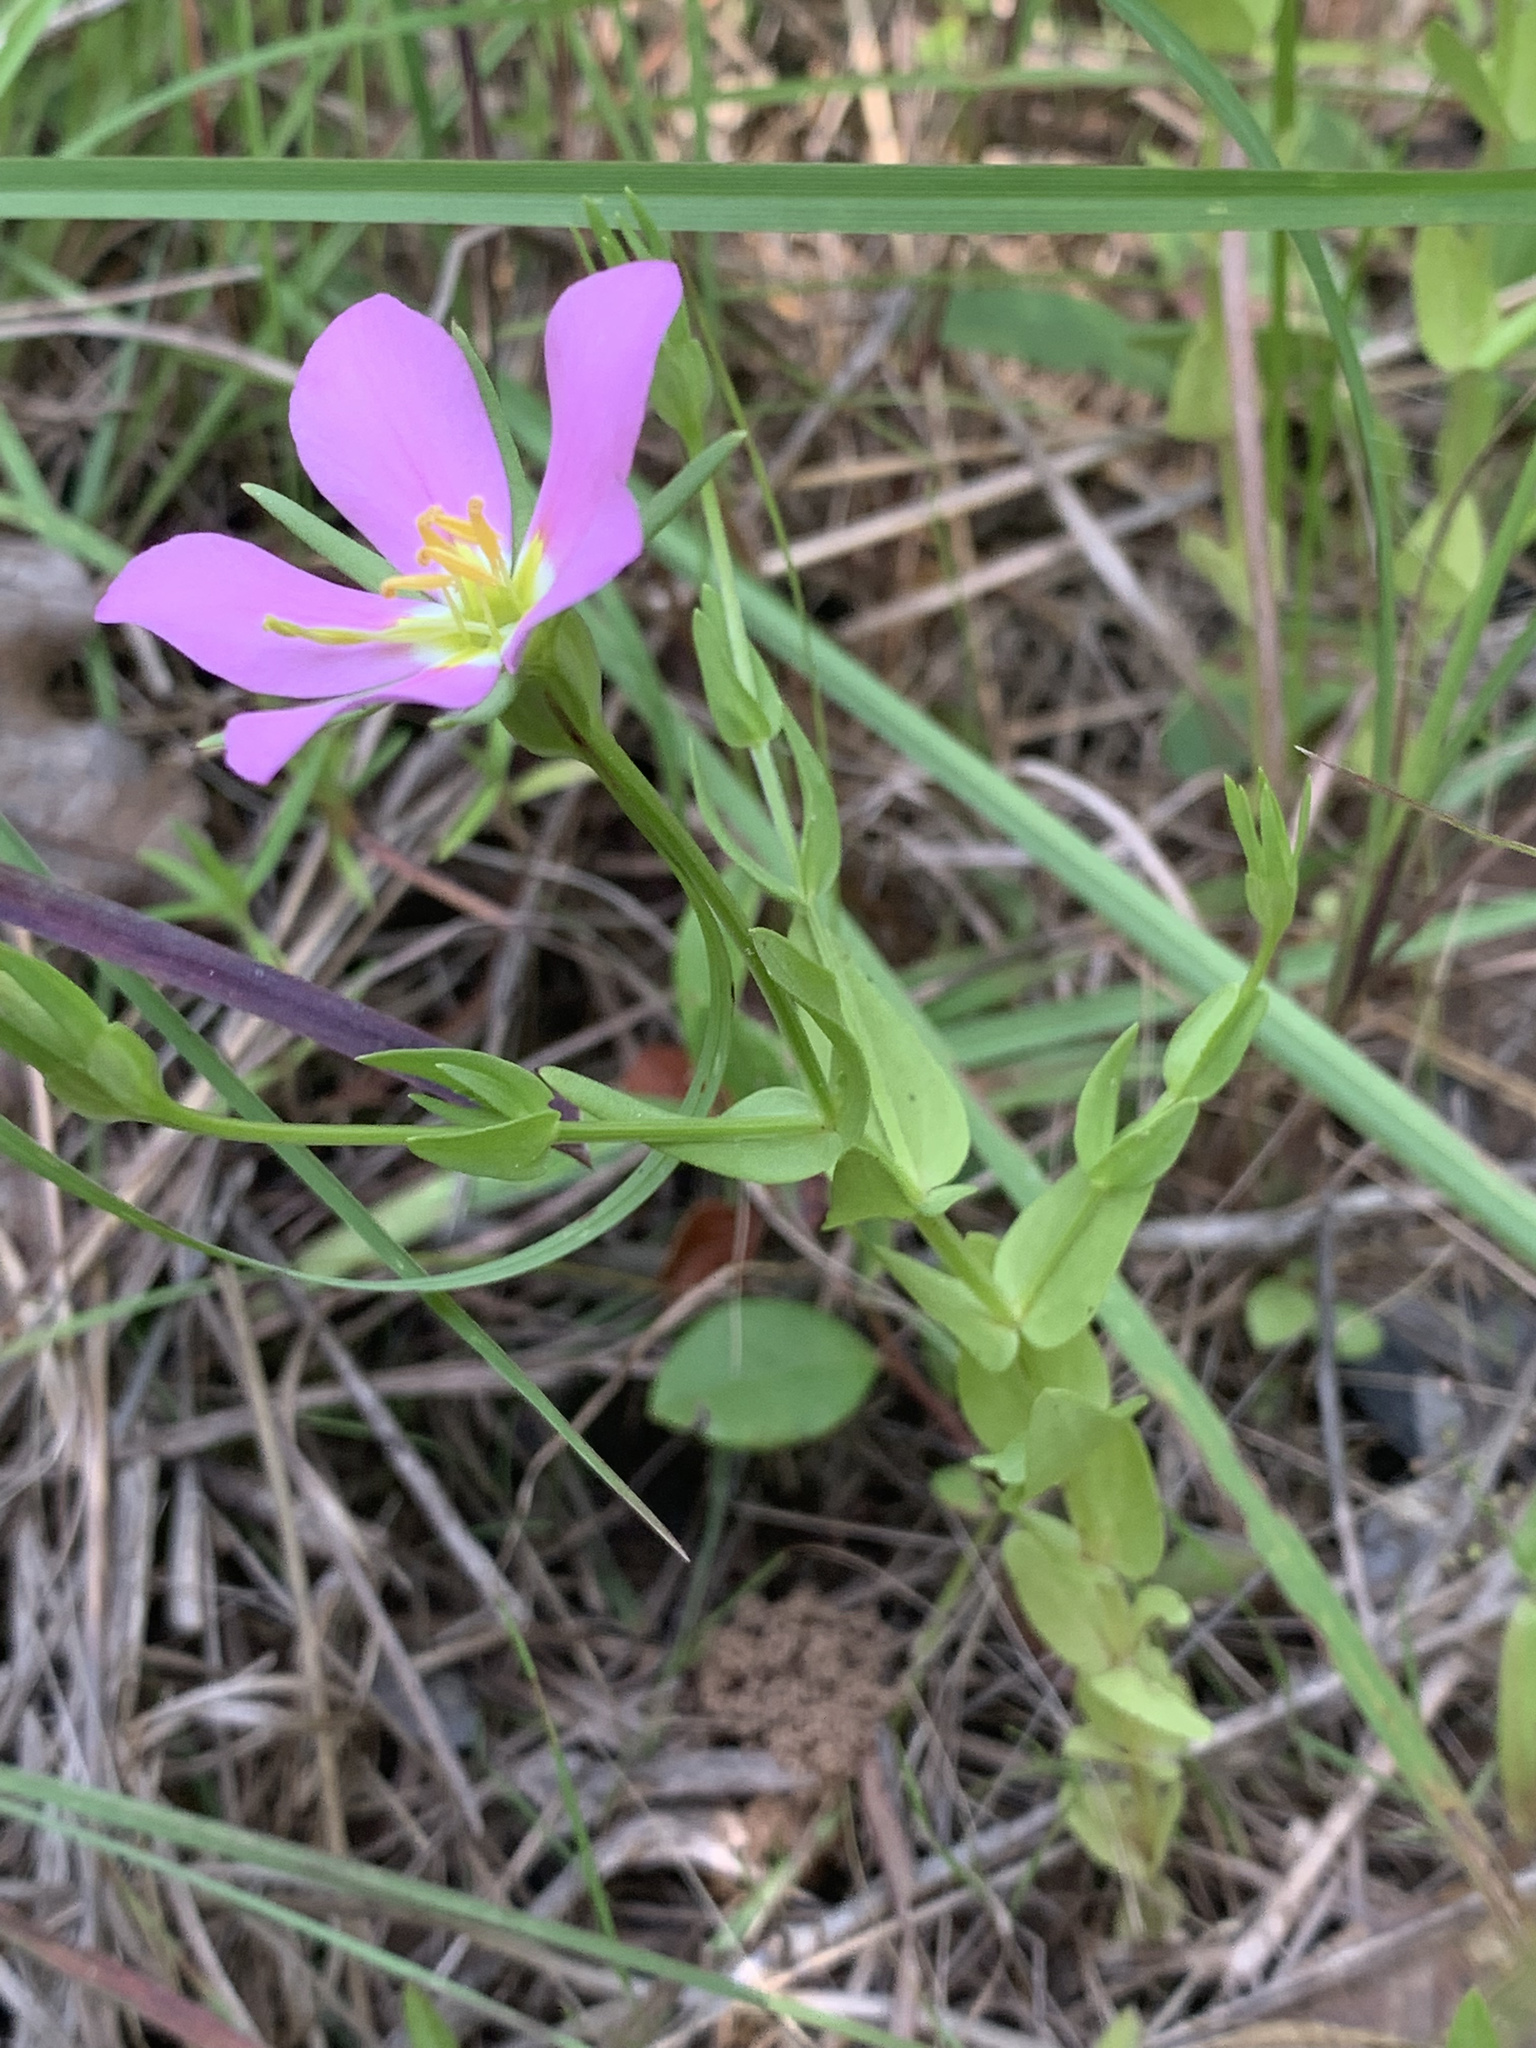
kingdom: Plantae
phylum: Tracheophyta
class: Magnoliopsida
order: Gentianales
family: Gentianaceae
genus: Sabatia
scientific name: Sabatia campestris
